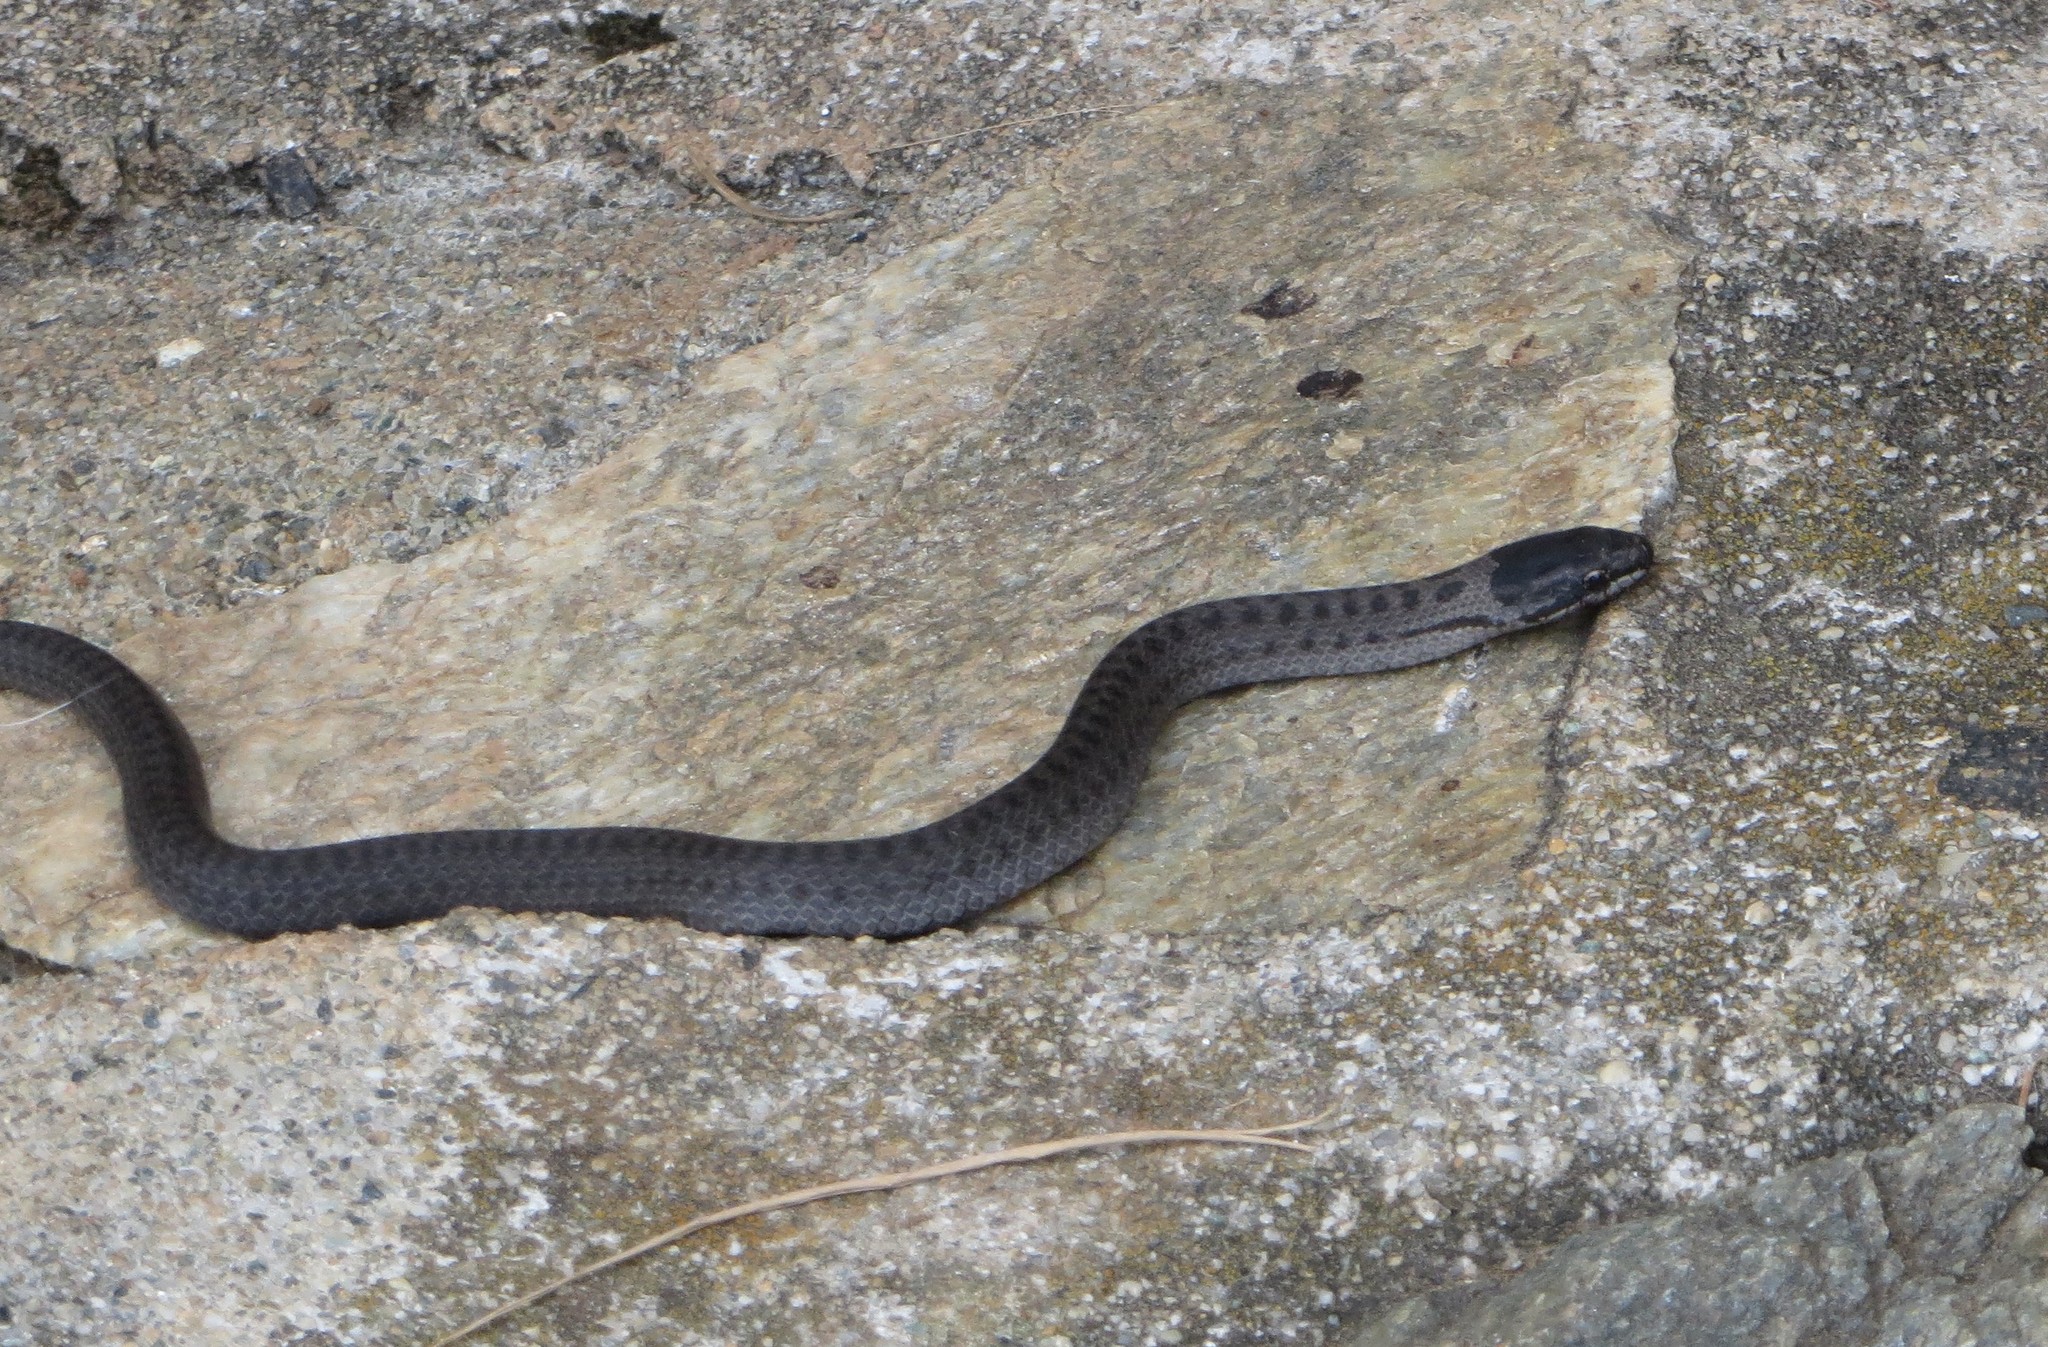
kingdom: Animalia
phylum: Chordata
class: Squamata
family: Colubridae
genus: Coronella
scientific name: Coronella austriaca
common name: Smooth snake
